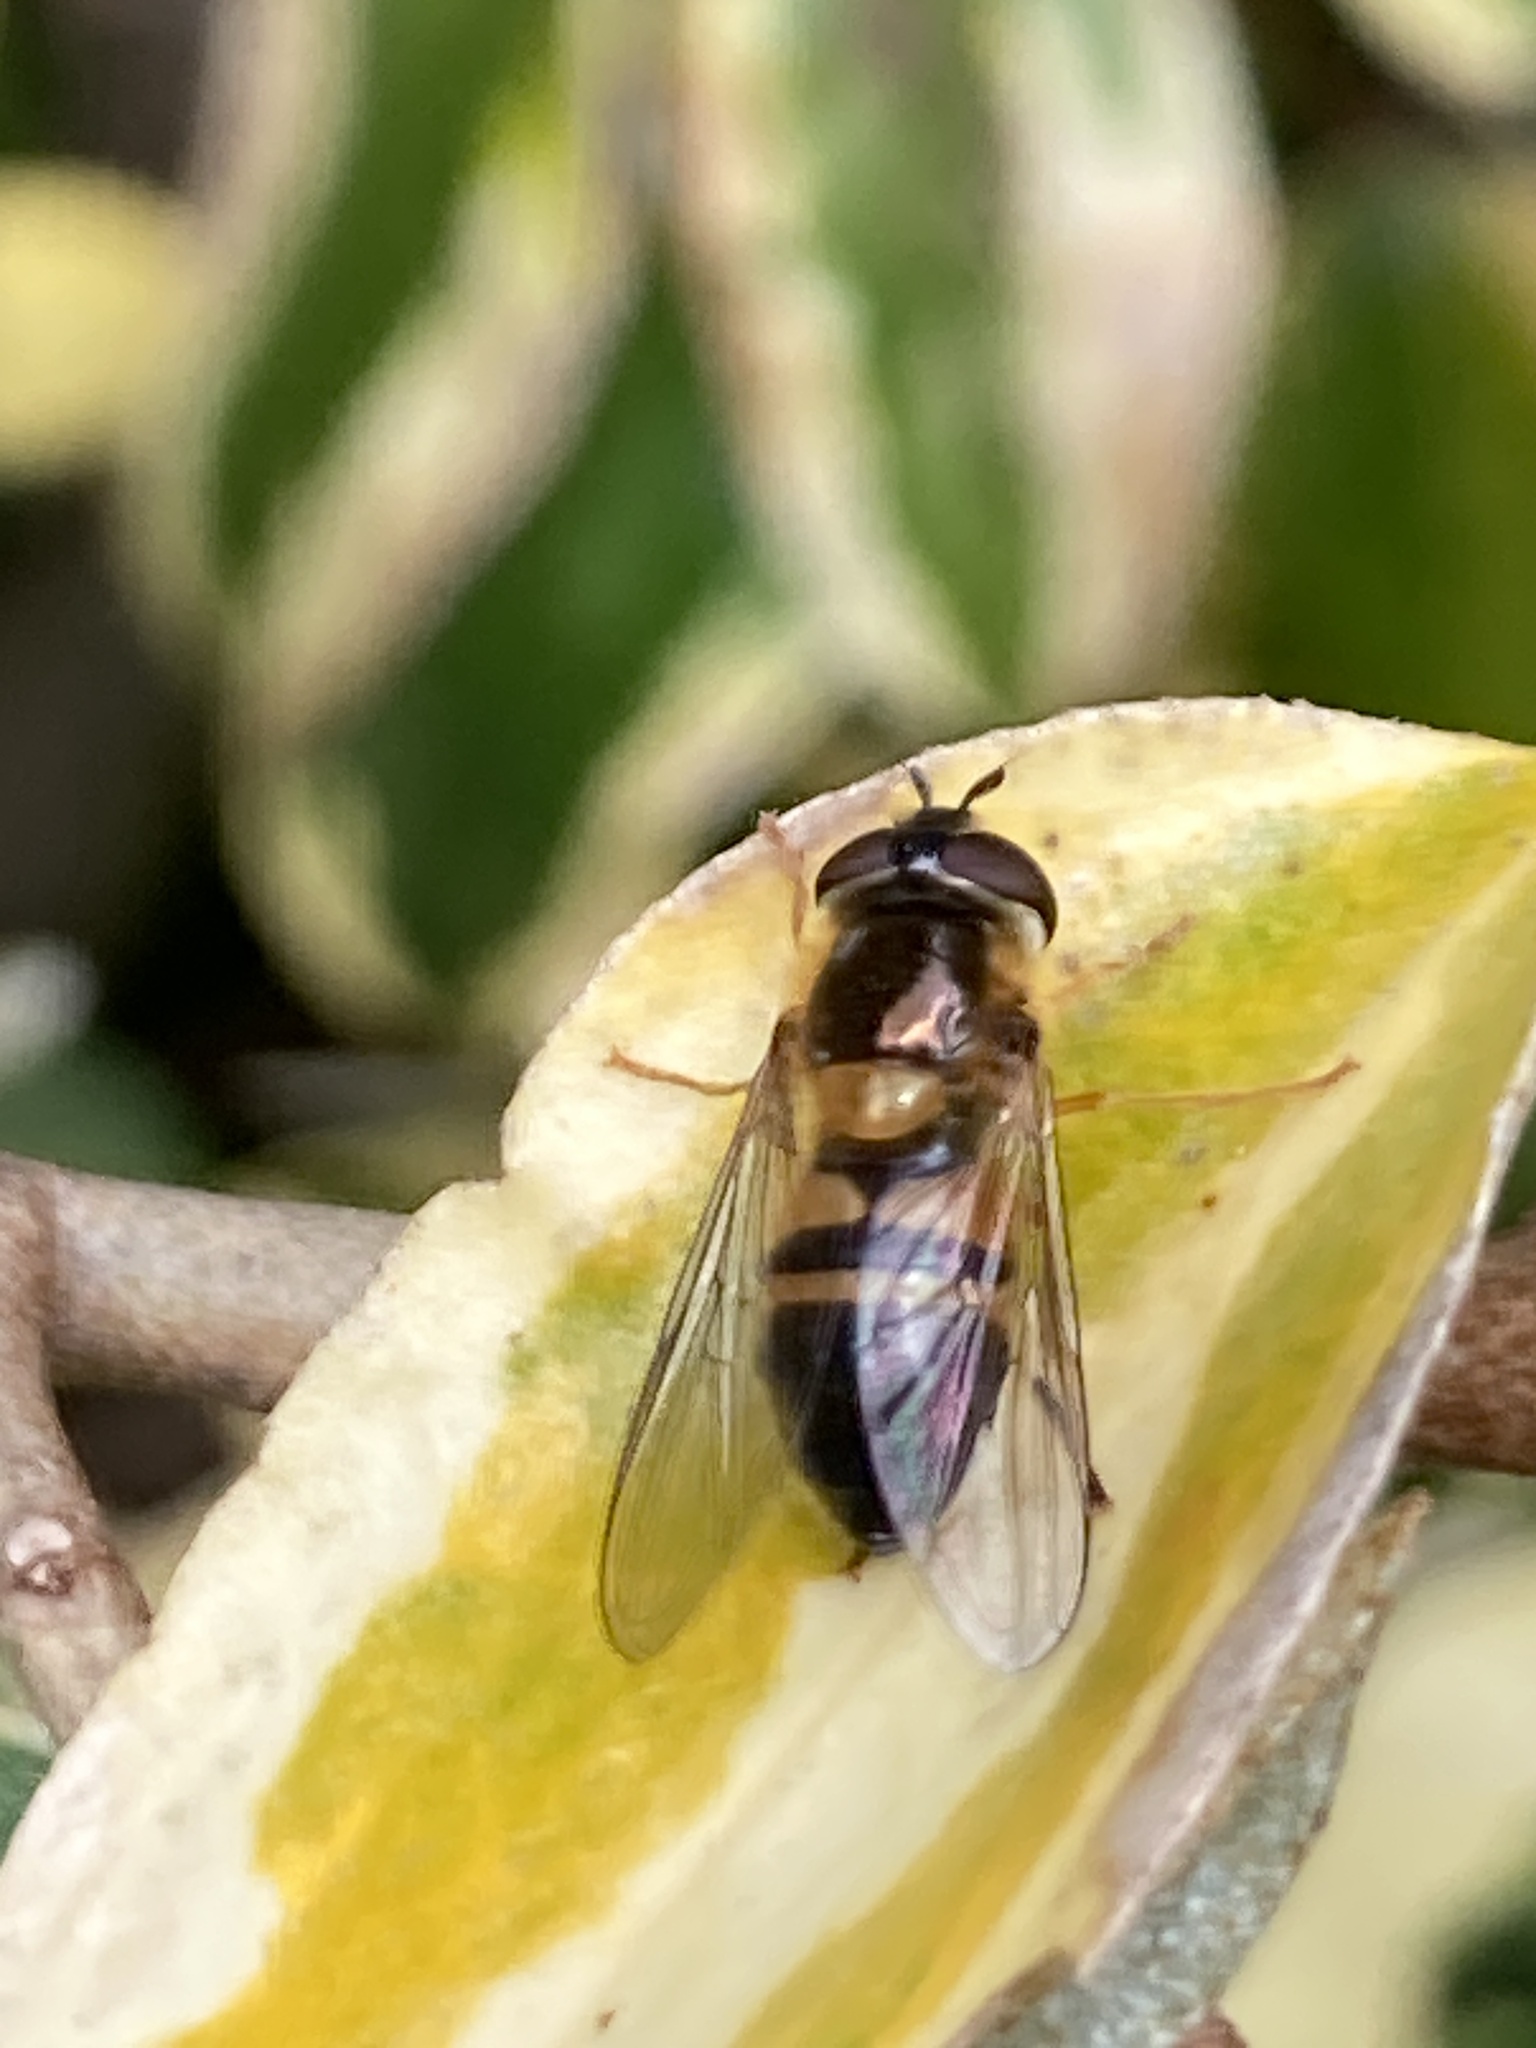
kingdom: Animalia
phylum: Arthropoda
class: Insecta
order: Diptera
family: Syrphidae
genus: Epistrophe
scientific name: Epistrophe eligans
